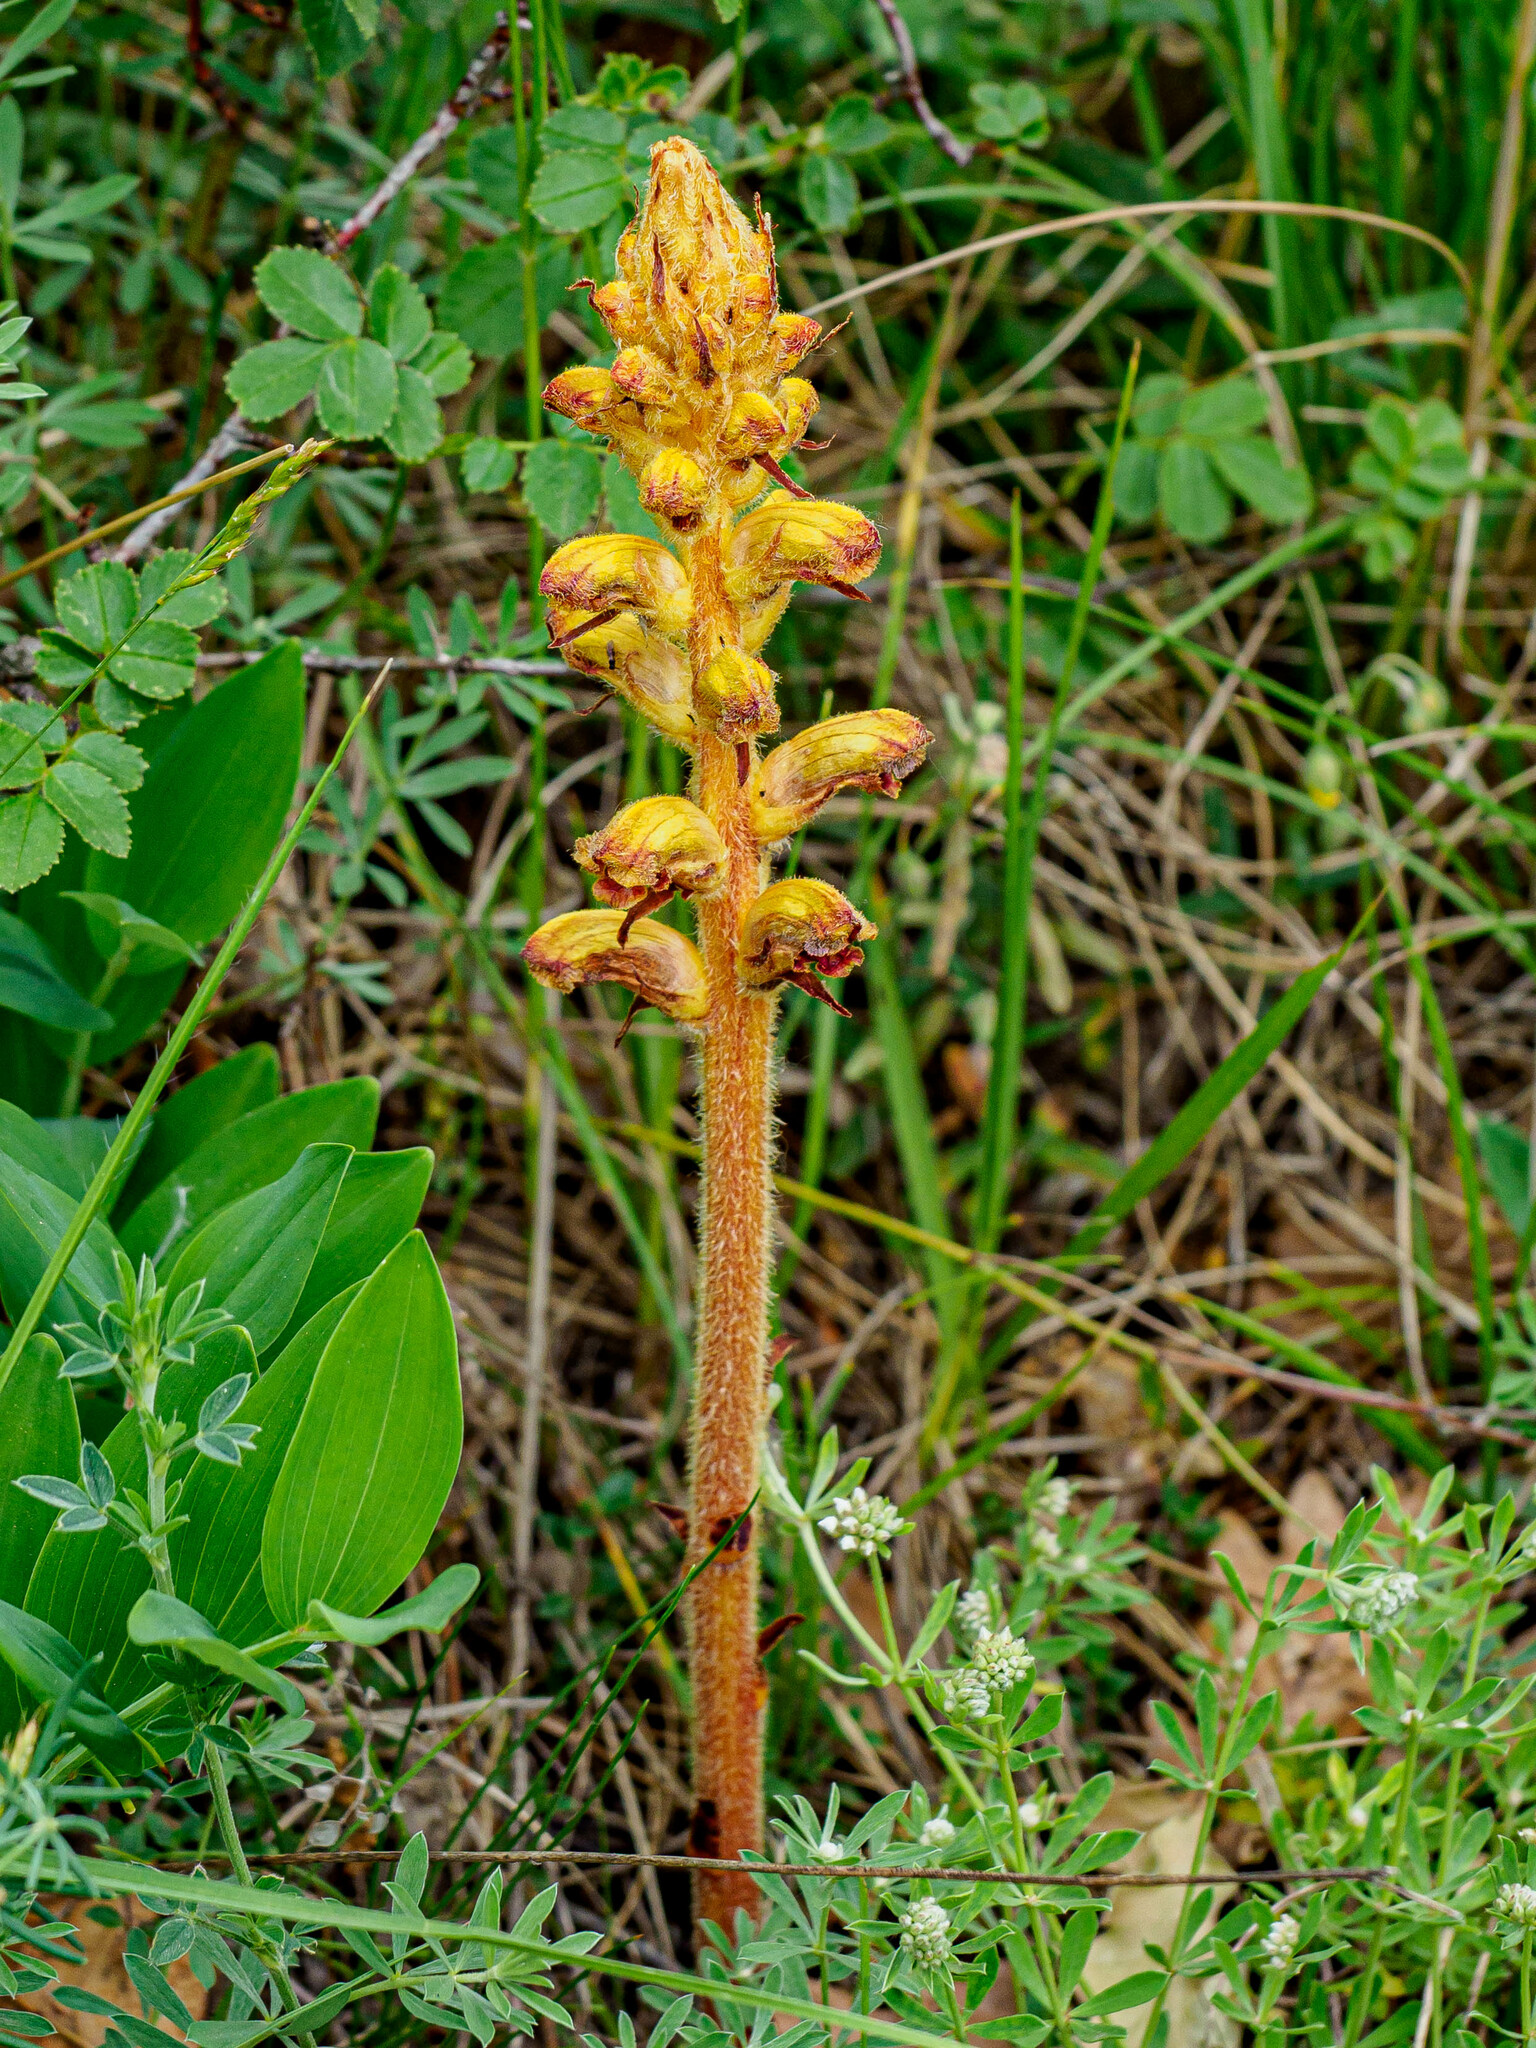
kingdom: Plantae
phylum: Tracheophyta
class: Magnoliopsida
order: Lamiales
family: Orobanchaceae
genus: Orobanche
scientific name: Orobanche gracilis
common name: Slender broomrape
